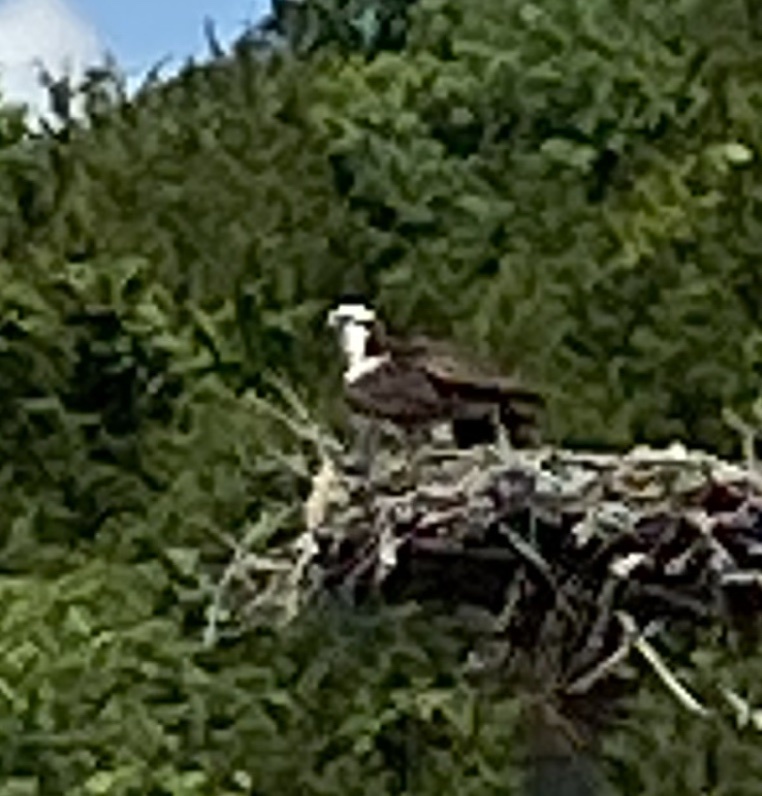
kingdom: Animalia
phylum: Chordata
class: Aves
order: Accipitriformes
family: Pandionidae
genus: Pandion
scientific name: Pandion haliaetus
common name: Osprey
